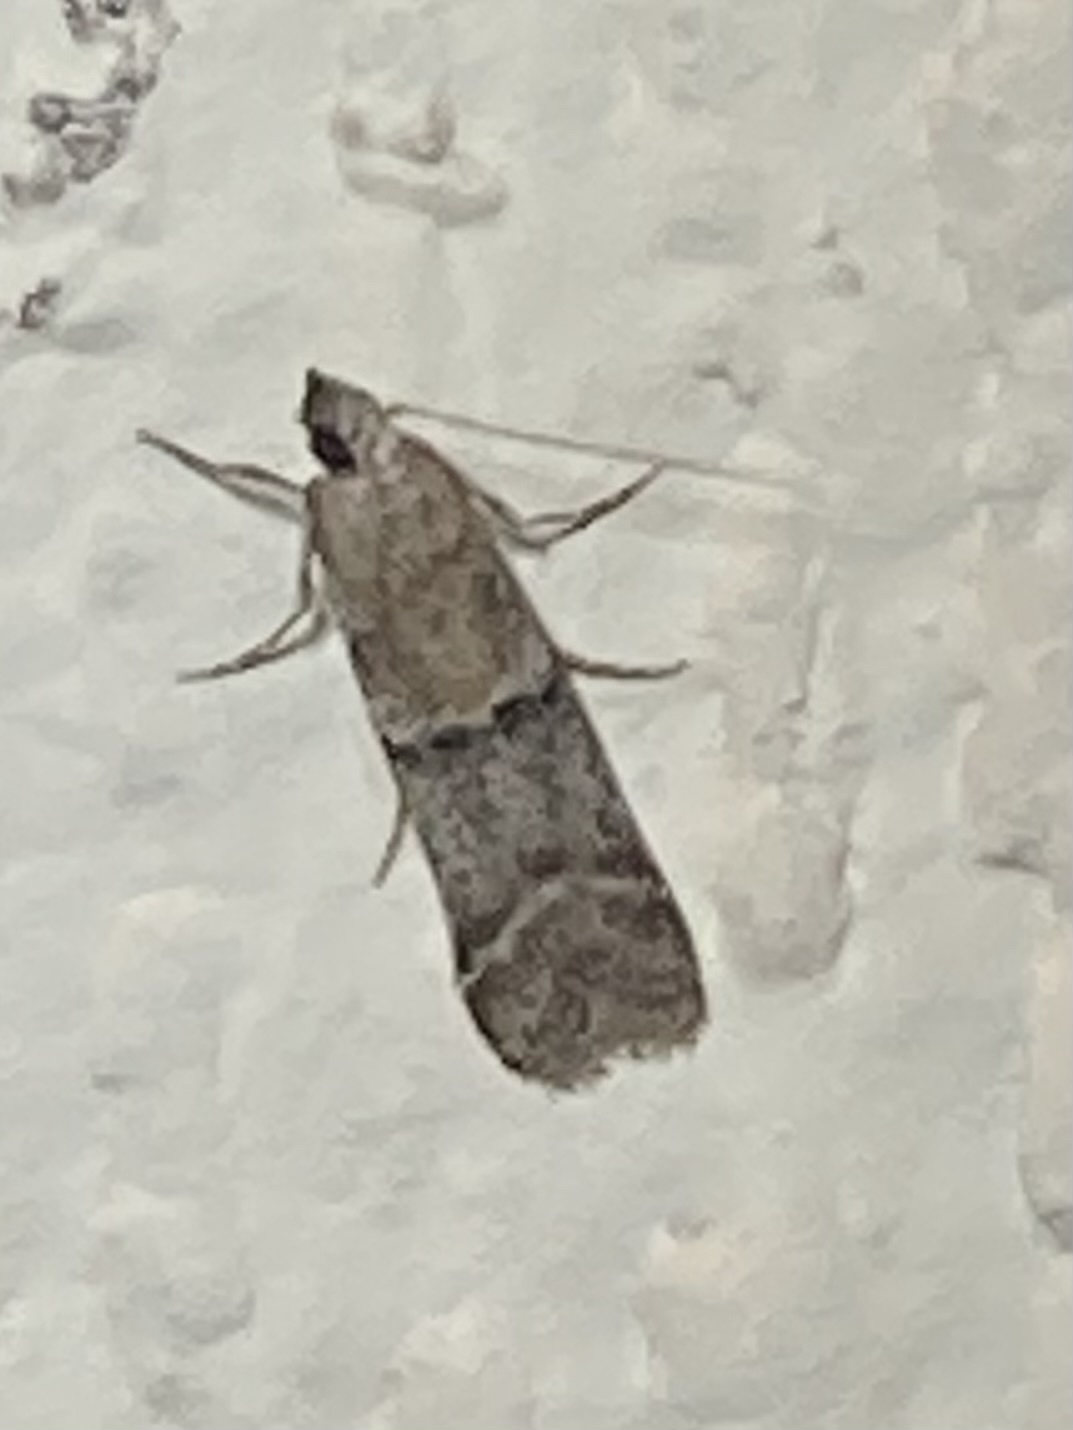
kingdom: Animalia
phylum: Arthropoda
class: Insecta
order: Lepidoptera
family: Pyralidae
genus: Ephestiodes
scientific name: Ephestiodes gilvescentella
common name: Moth
